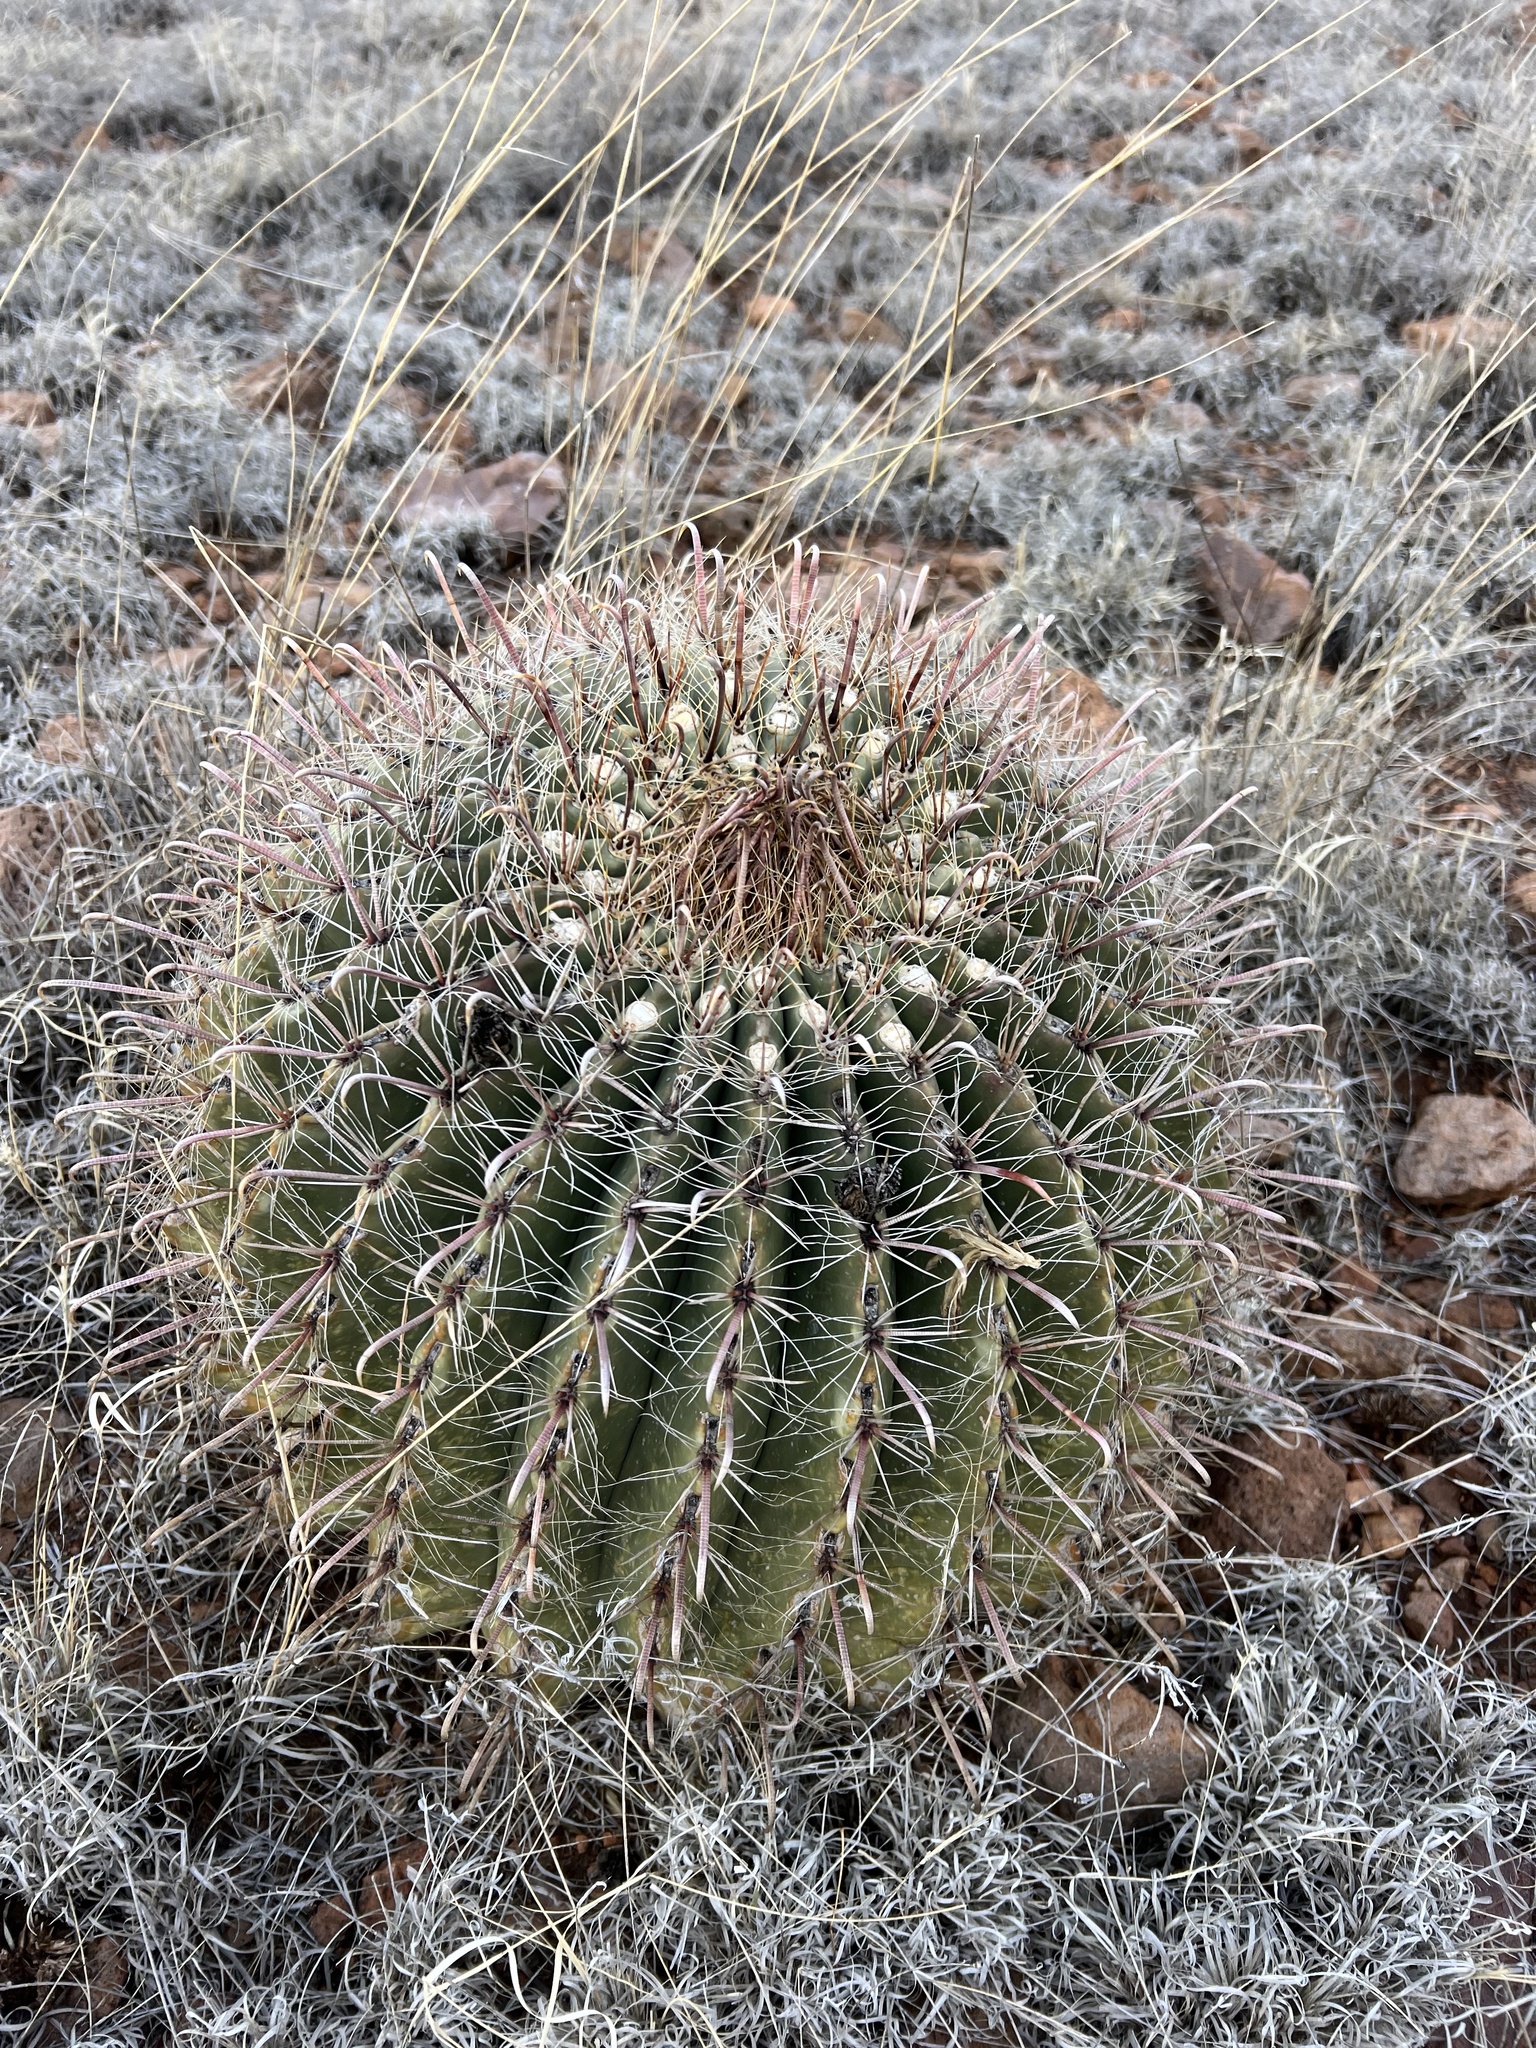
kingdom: Plantae
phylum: Tracheophyta
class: Magnoliopsida
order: Caryophyllales
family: Cactaceae
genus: Ferocactus
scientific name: Ferocactus wislizeni
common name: Candy barrel cactus
